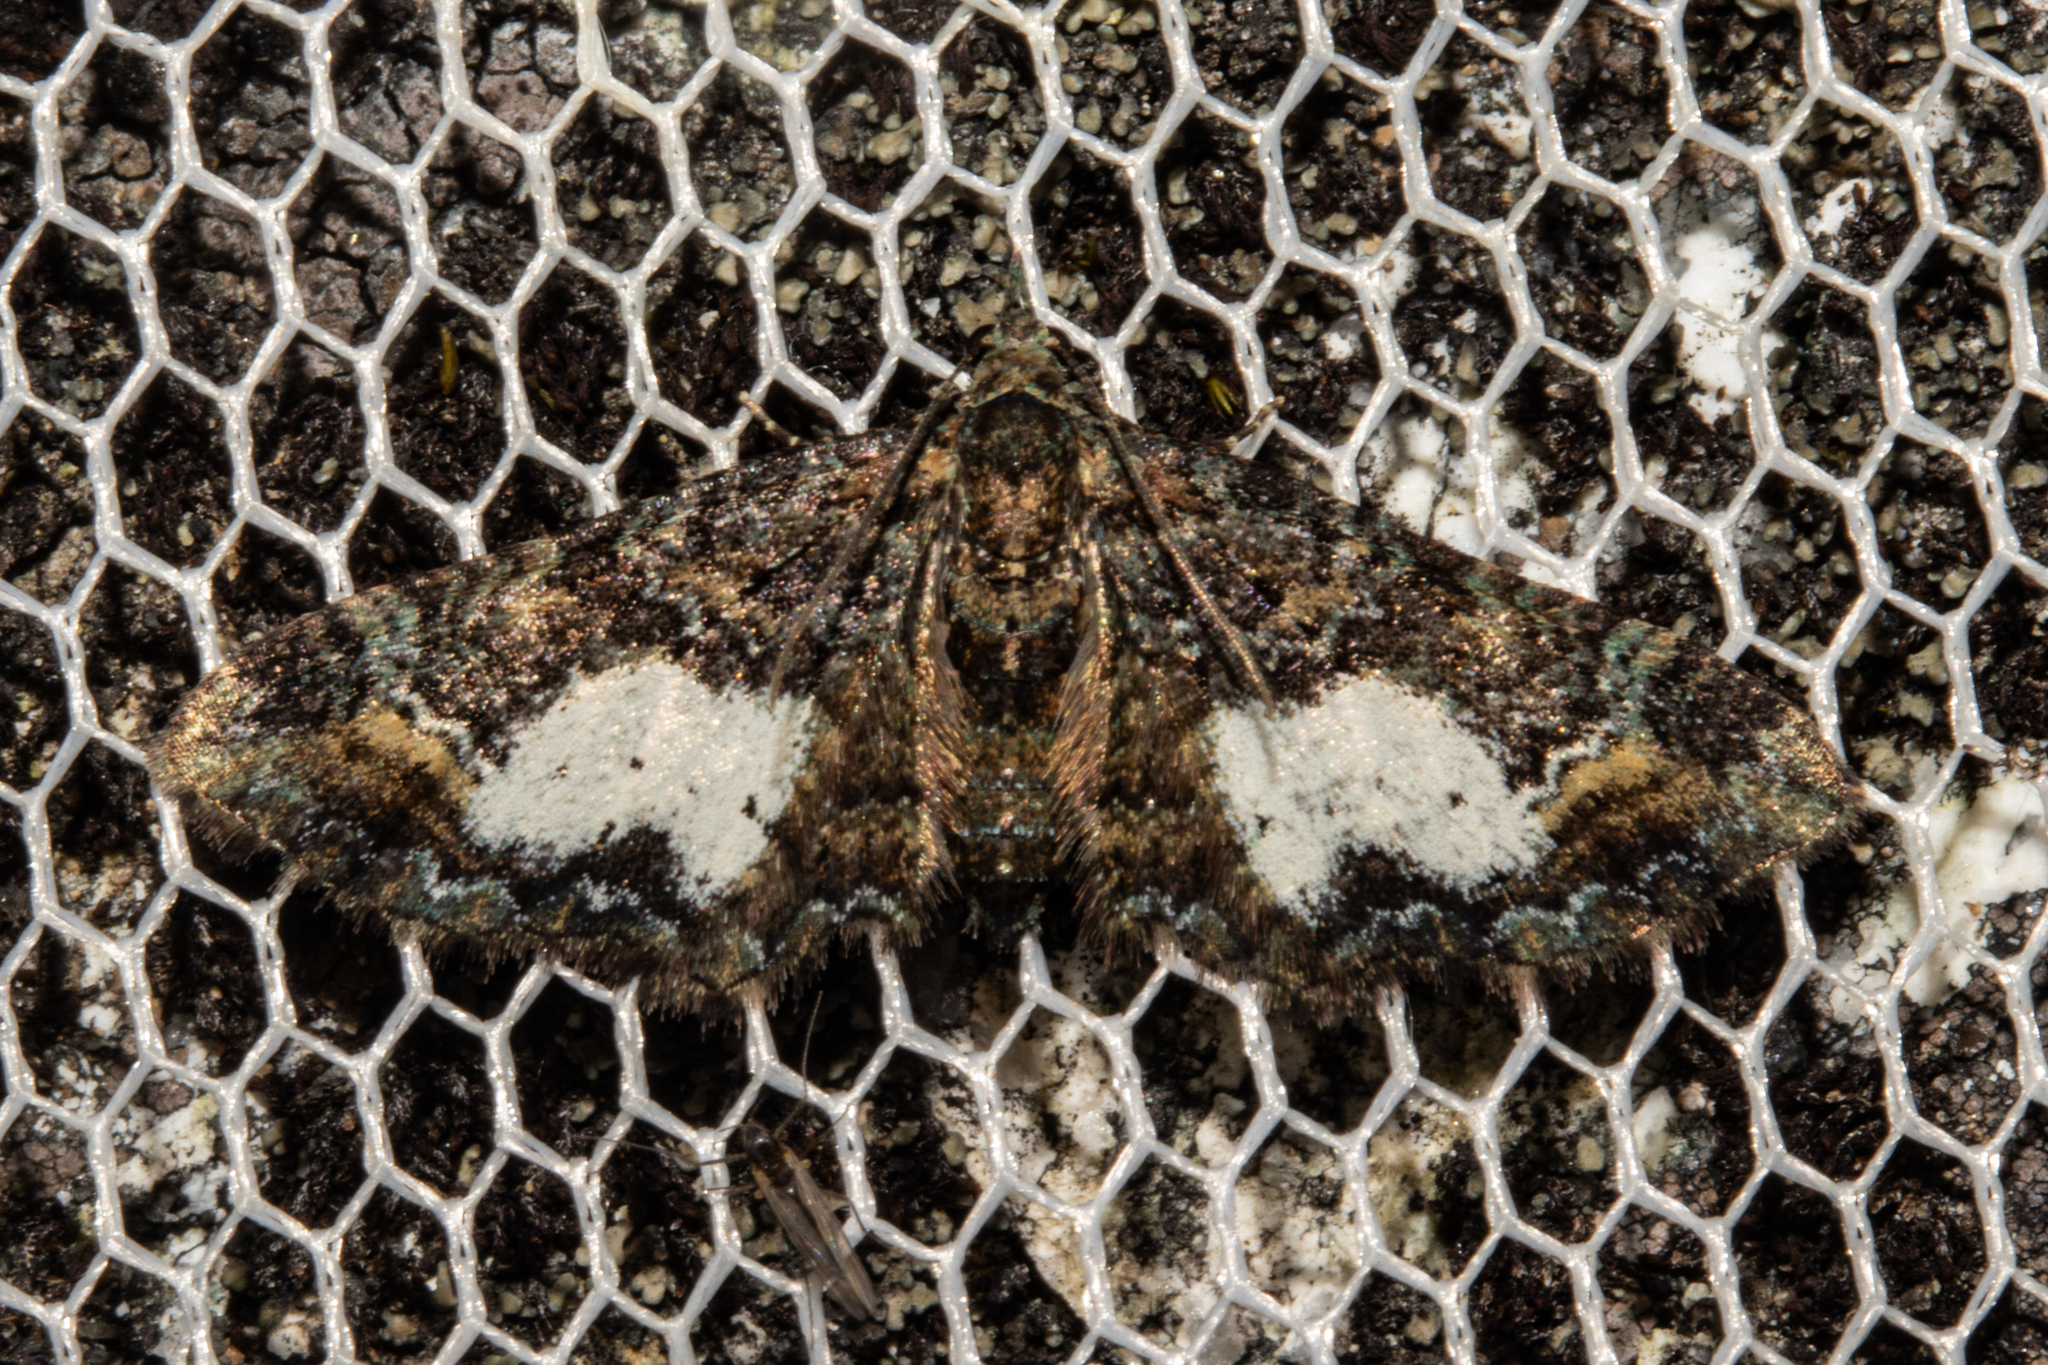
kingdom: Animalia
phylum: Arthropoda
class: Insecta
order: Lepidoptera
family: Geometridae
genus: Pasiphila
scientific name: Pasiphila lunata
